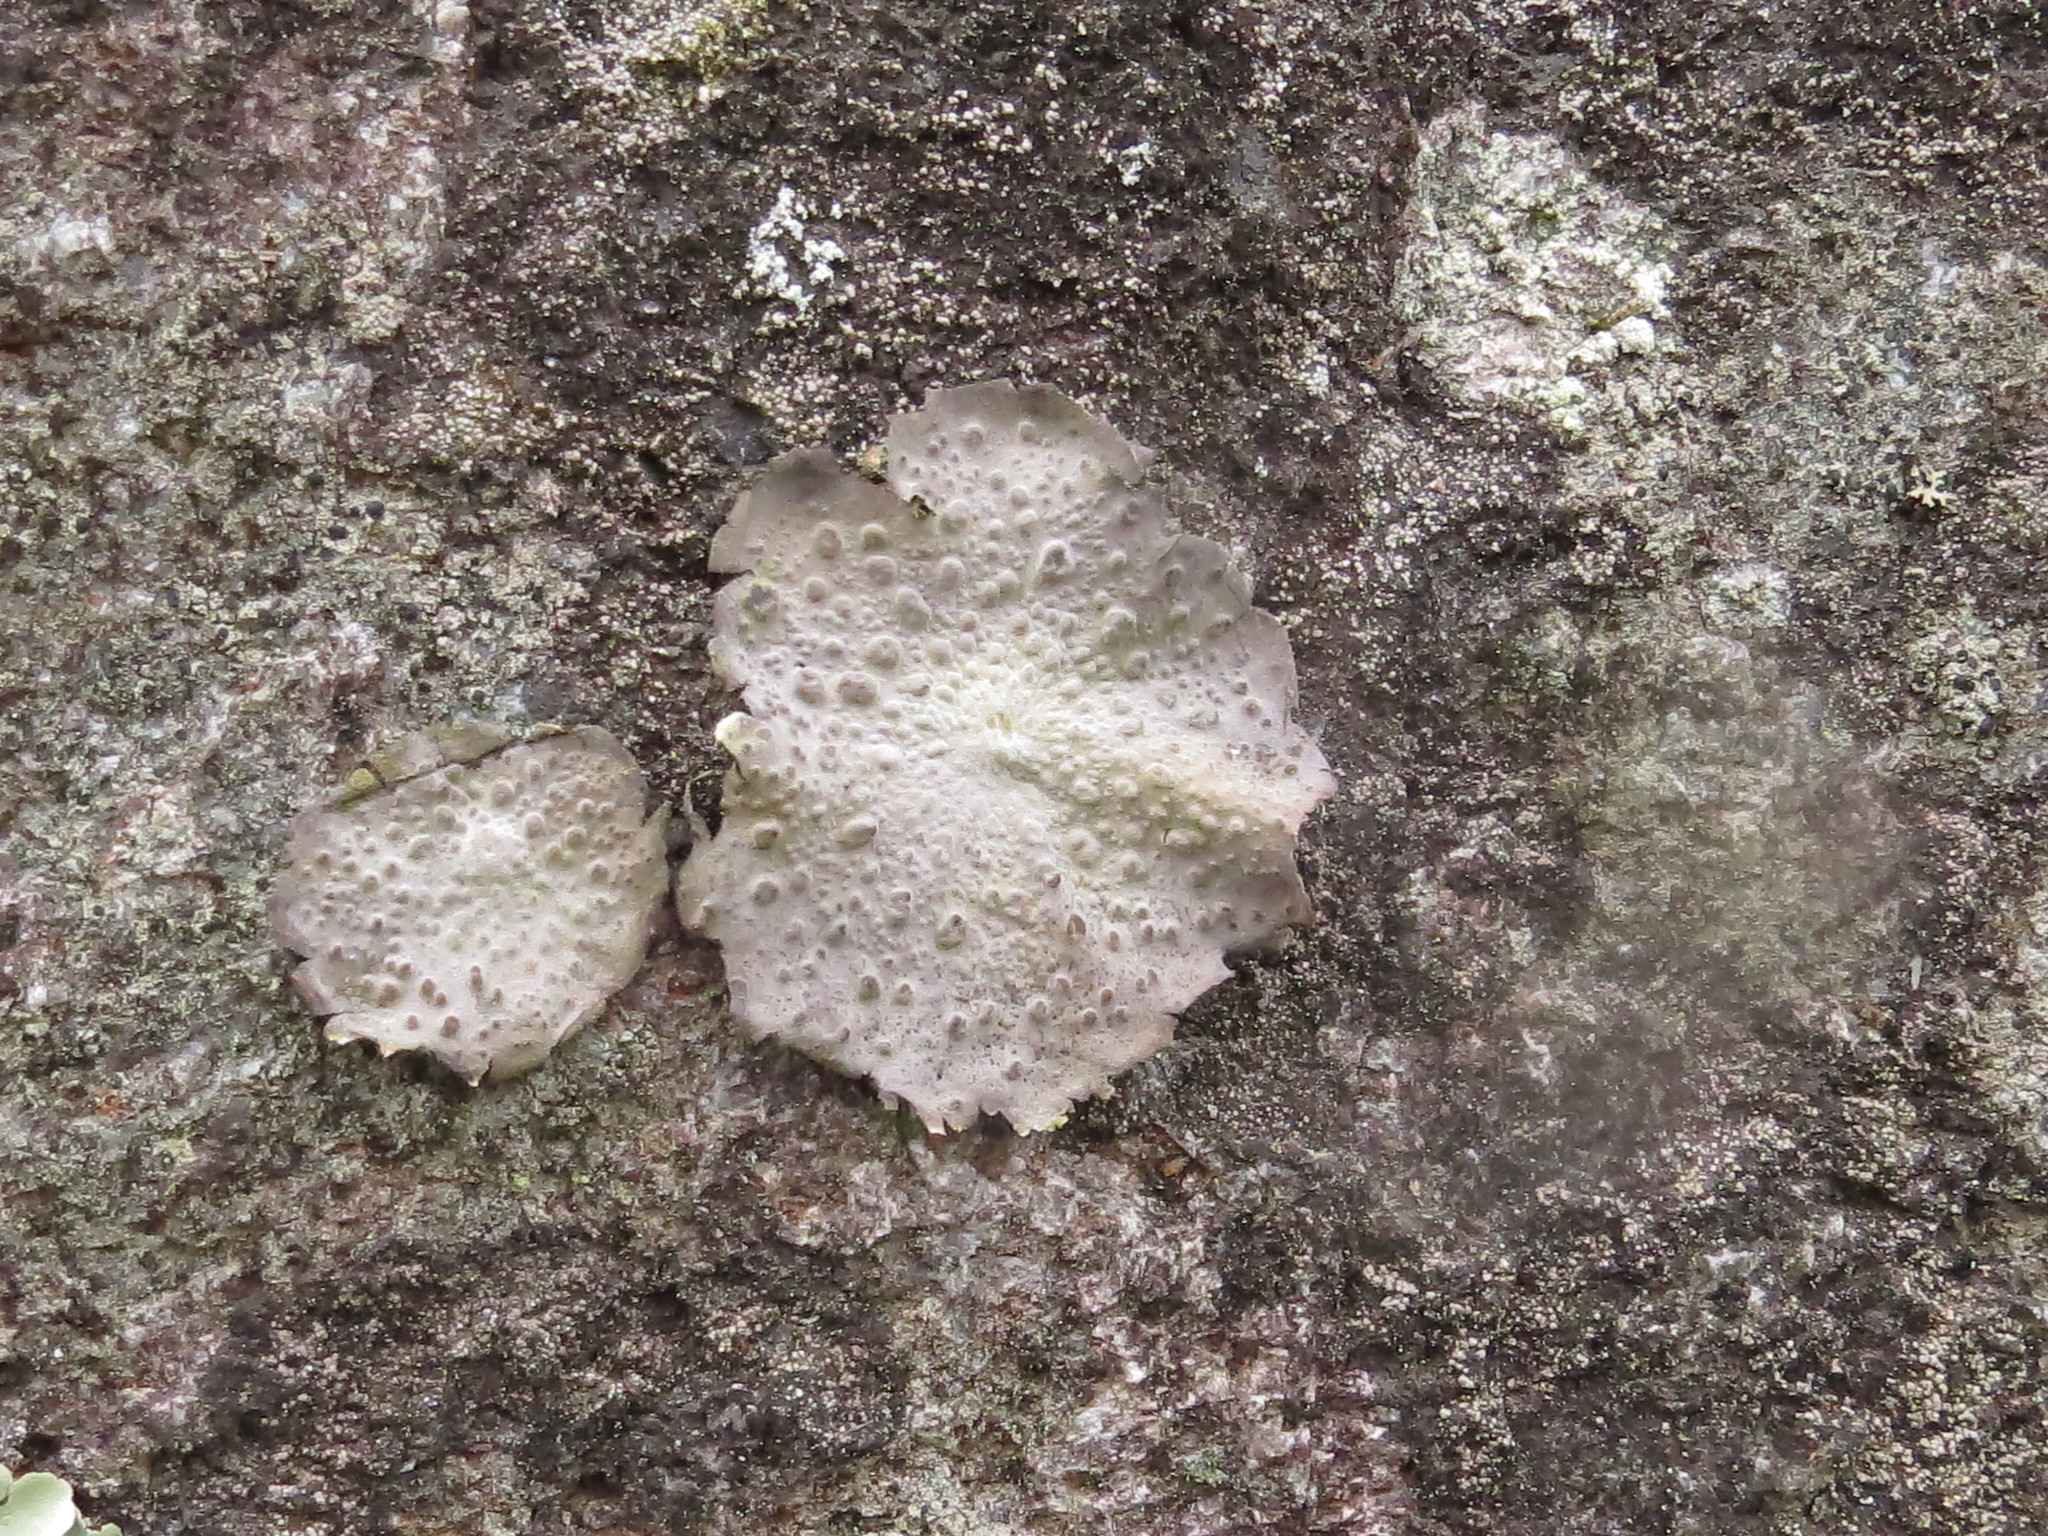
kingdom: Fungi
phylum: Ascomycota
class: Lecanoromycetes
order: Umbilicariales
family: Umbilicariaceae
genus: Lasallia
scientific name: Lasallia papulosa
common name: Common toadskin lichen
